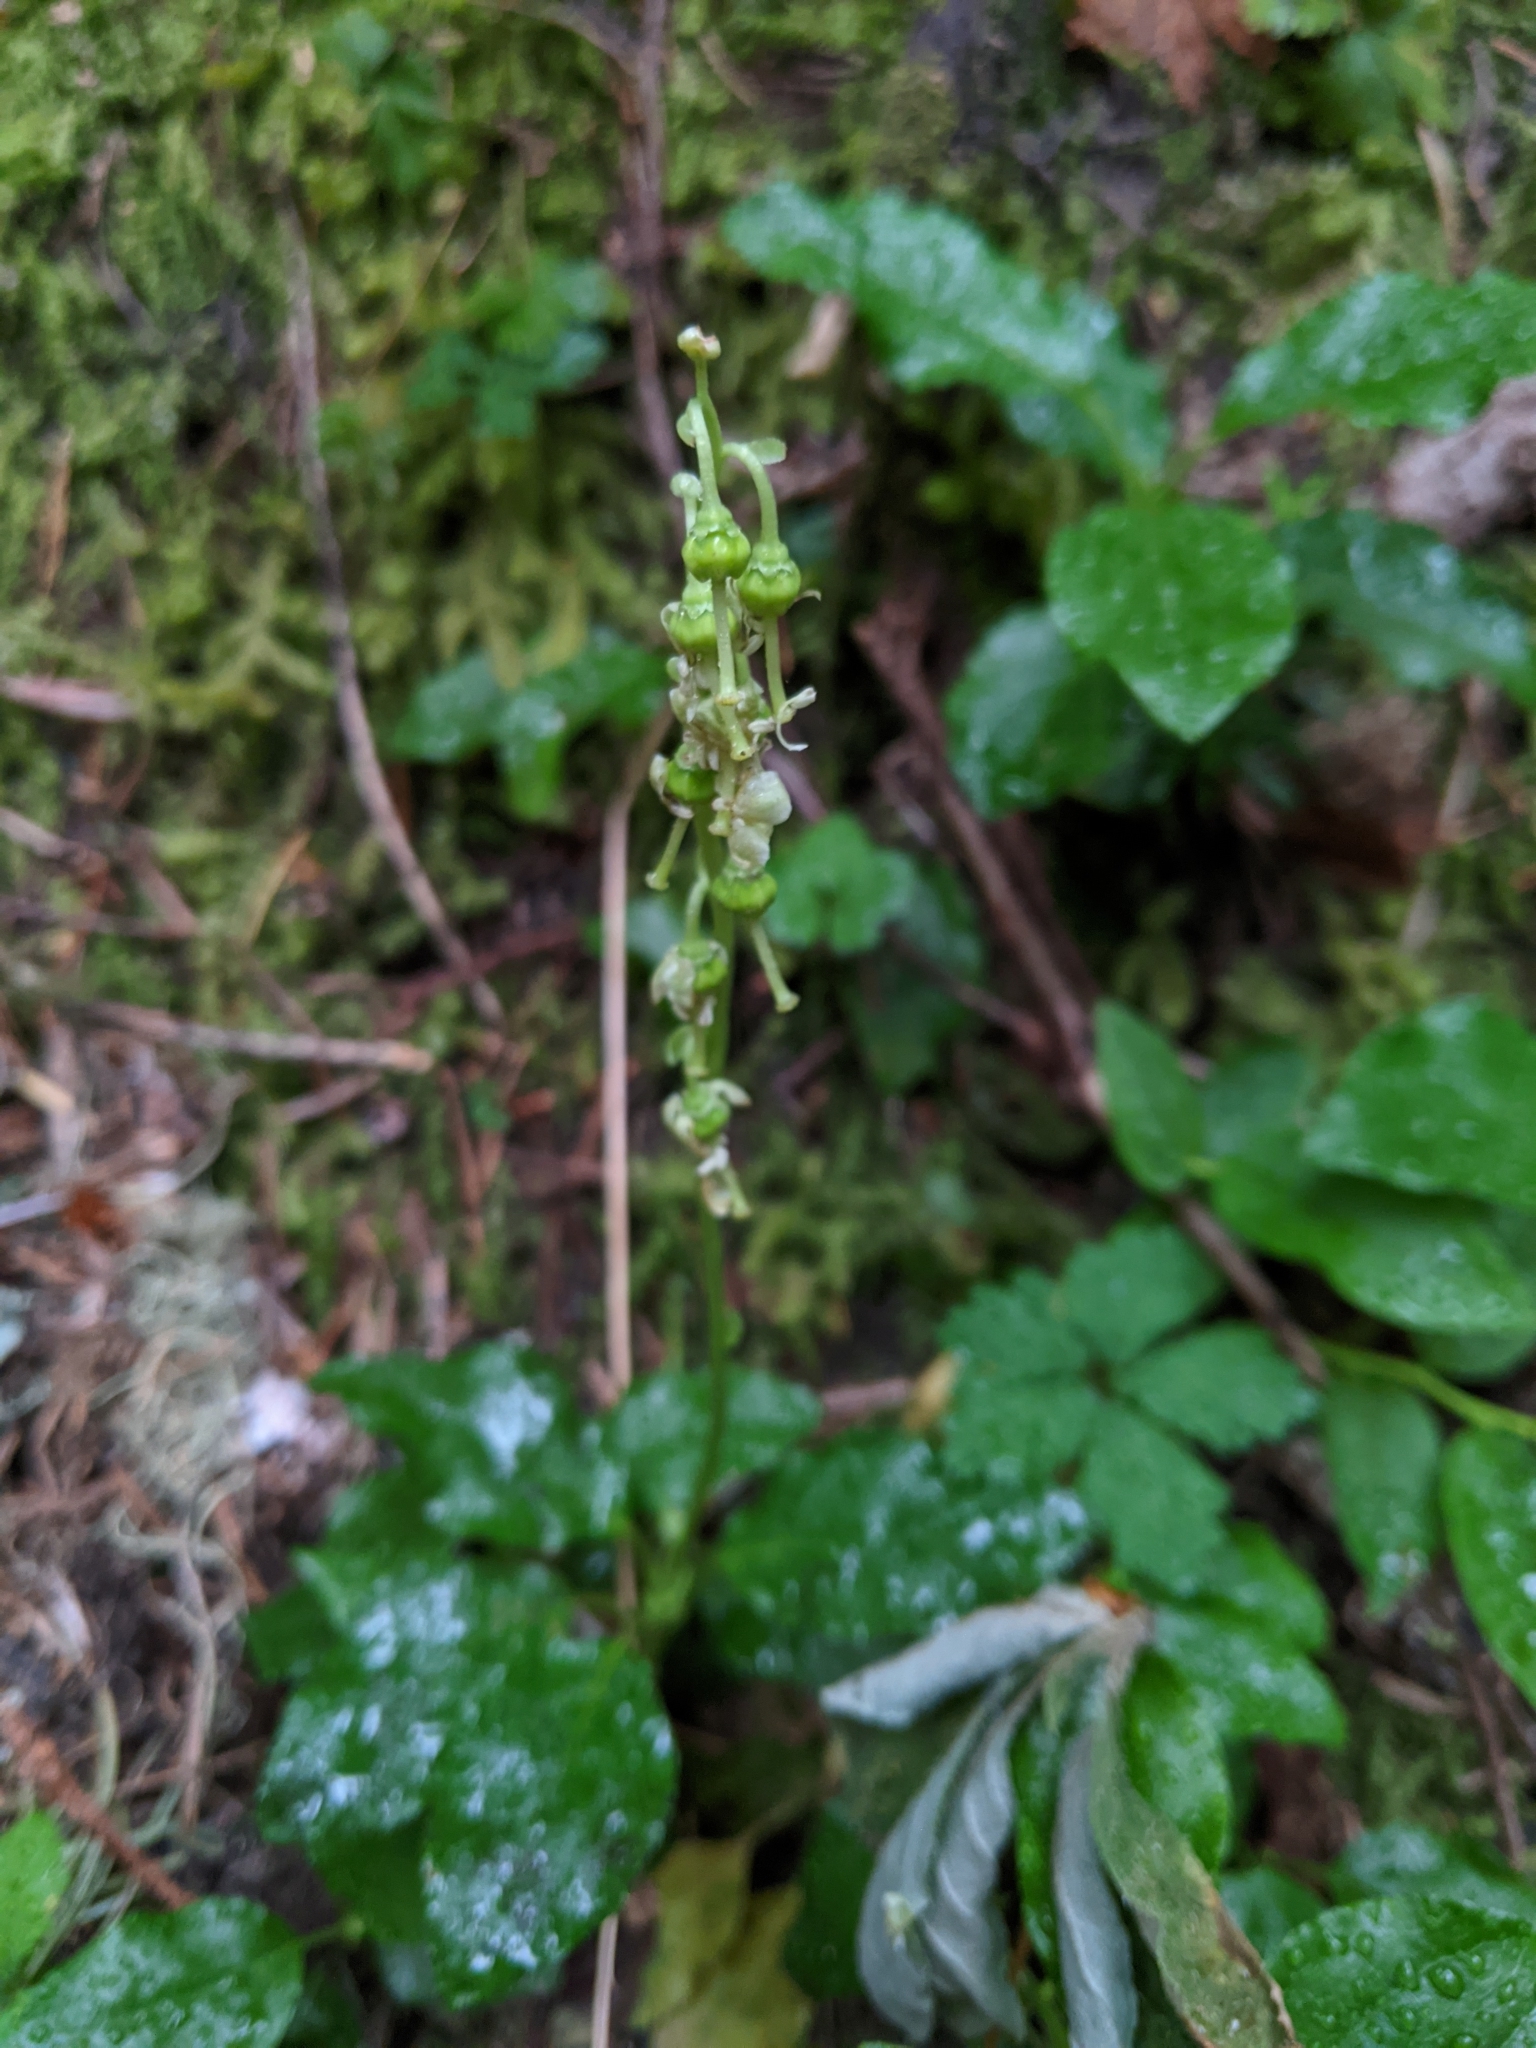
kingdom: Plantae
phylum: Tracheophyta
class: Magnoliopsida
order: Ericales
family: Ericaceae
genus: Orthilia
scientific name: Orthilia secunda
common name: One-sided orthilia
